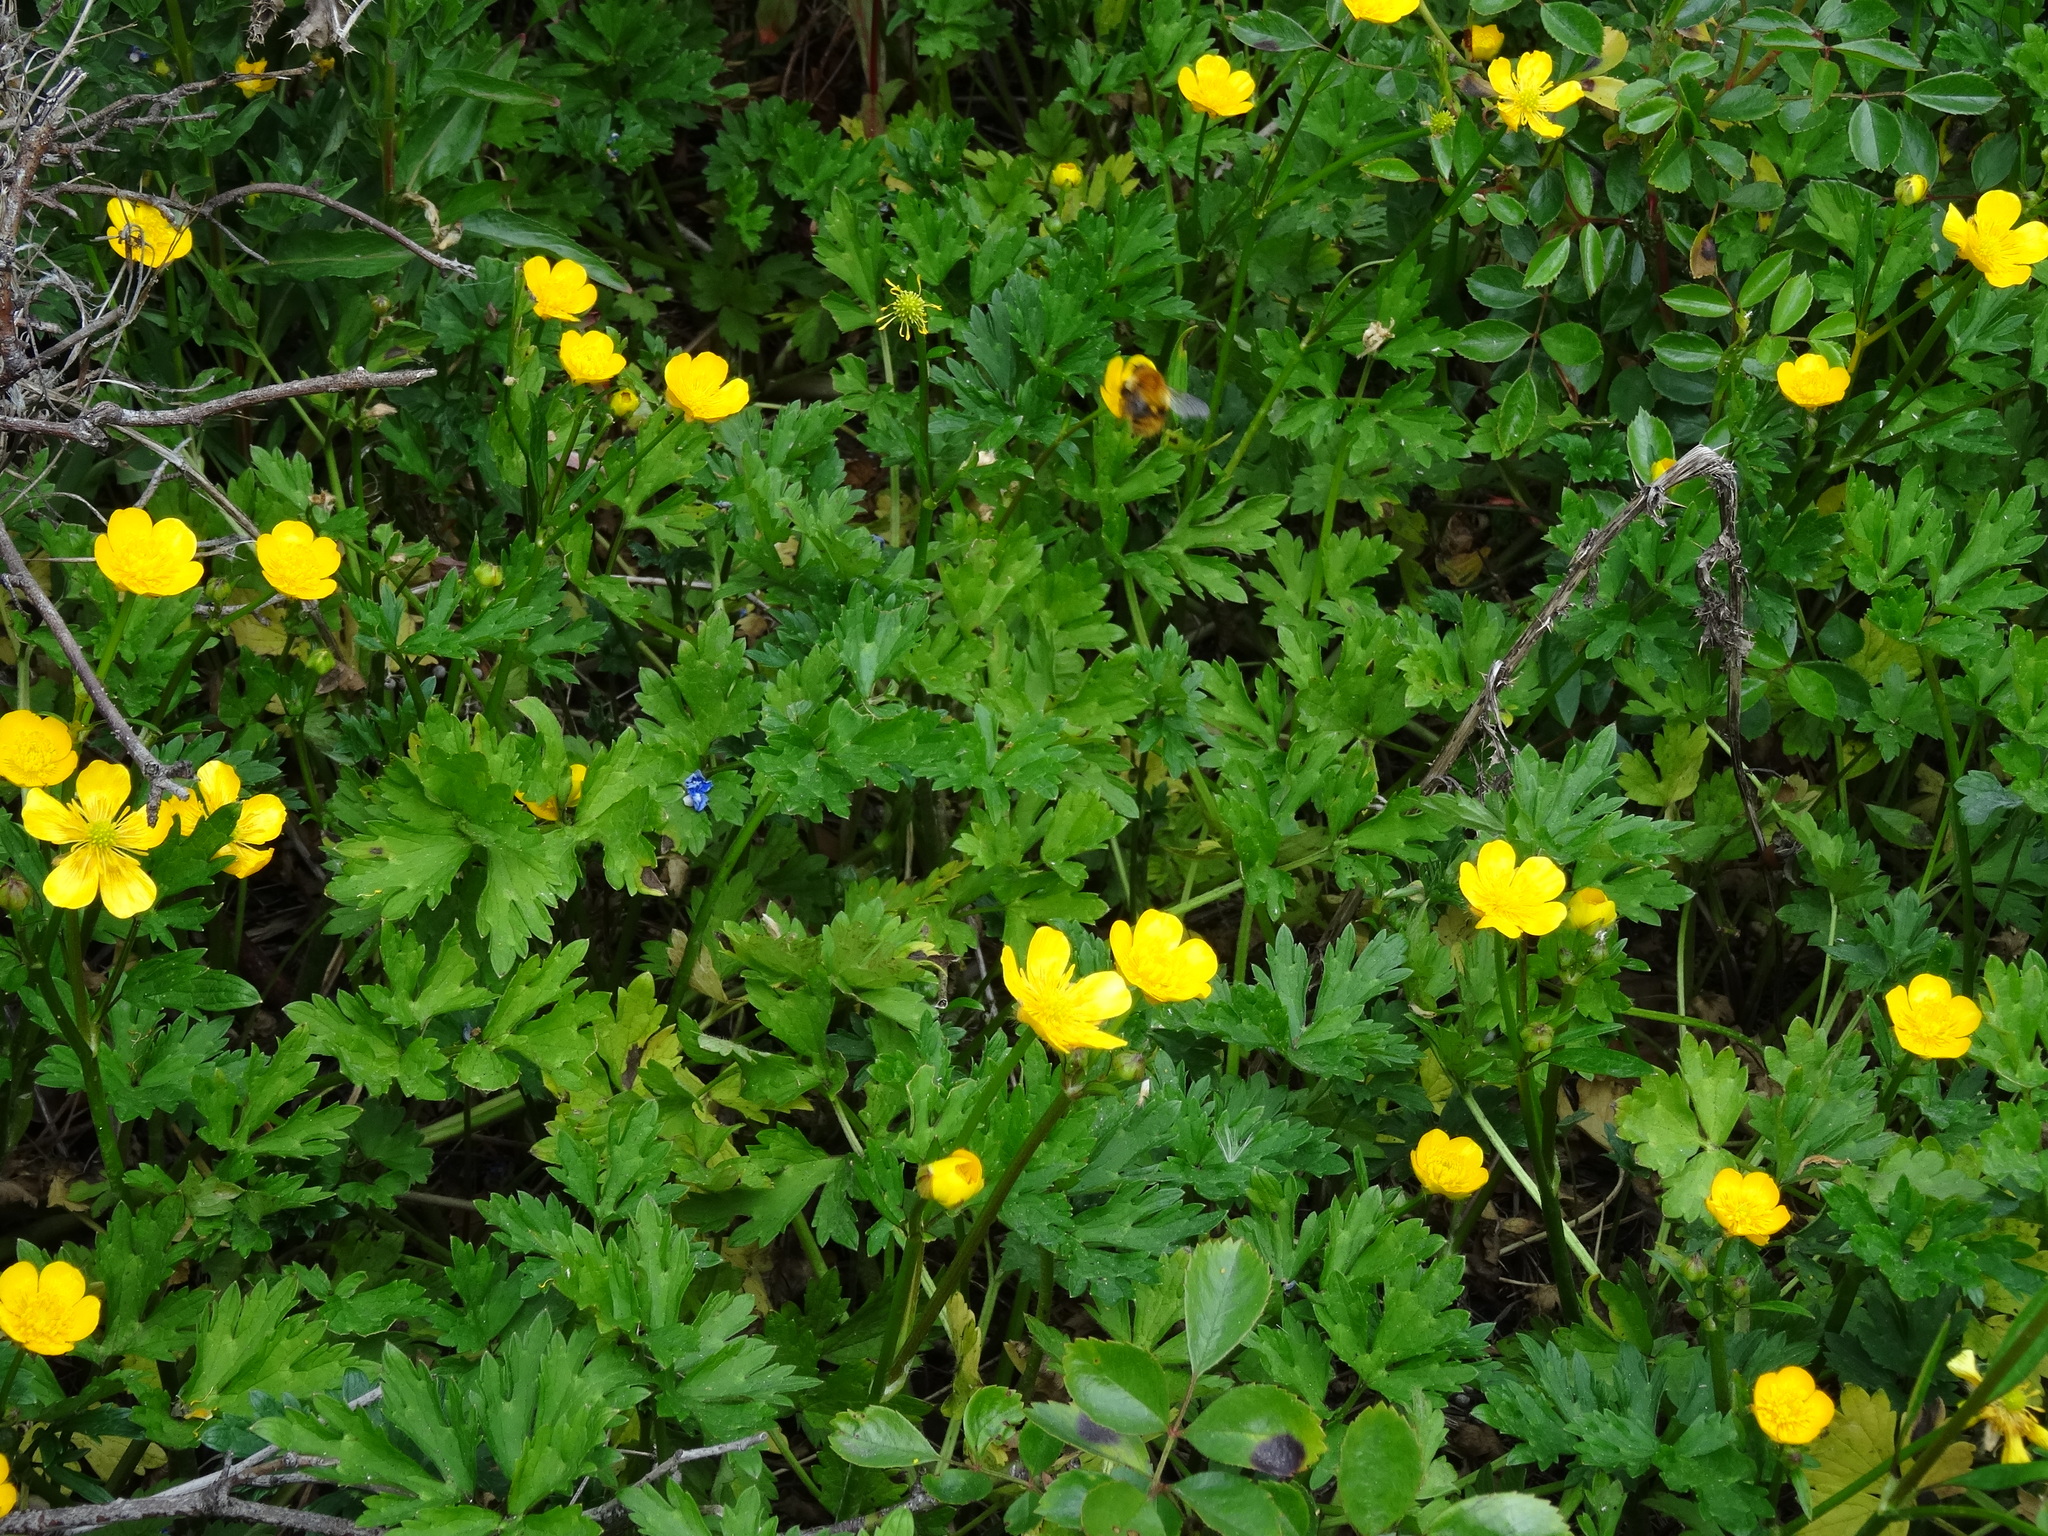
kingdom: Plantae
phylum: Tracheophyta
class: Magnoliopsida
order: Ranunculales
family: Ranunculaceae
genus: Ranunculus
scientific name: Ranunculus repens
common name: Creeping buttercup
